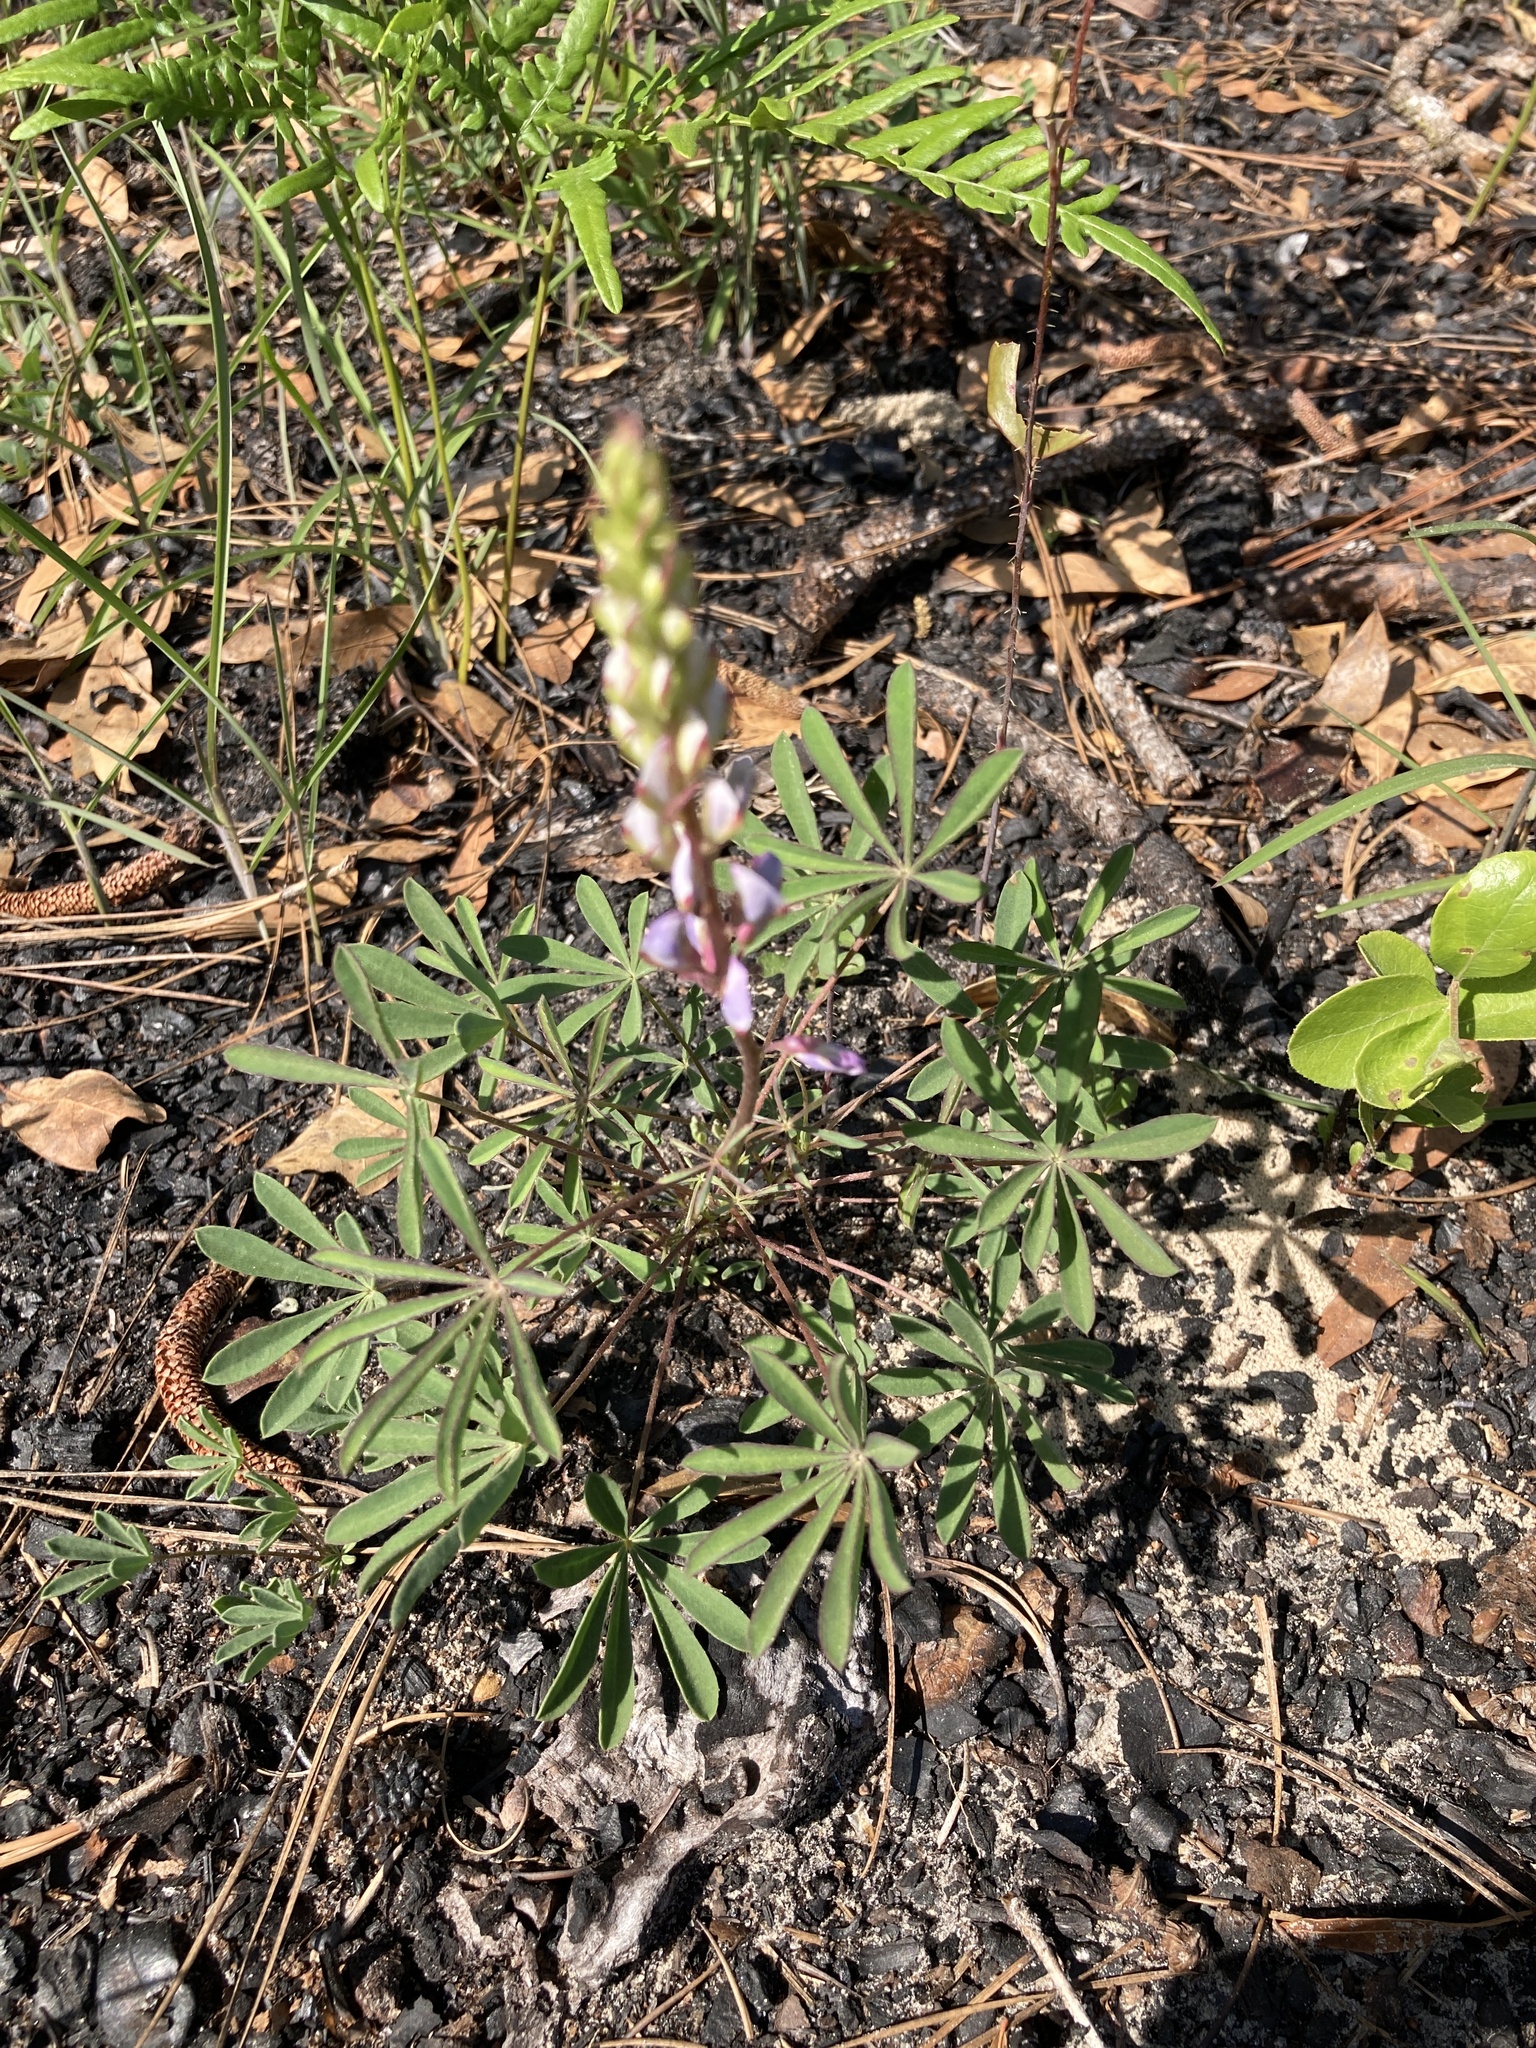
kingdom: Plantae
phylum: Tracheophyta
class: Magnoliopsida
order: Fabales
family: Fabaceae
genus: Lupinus
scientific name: Lupinus perennis
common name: Sundial lupine
